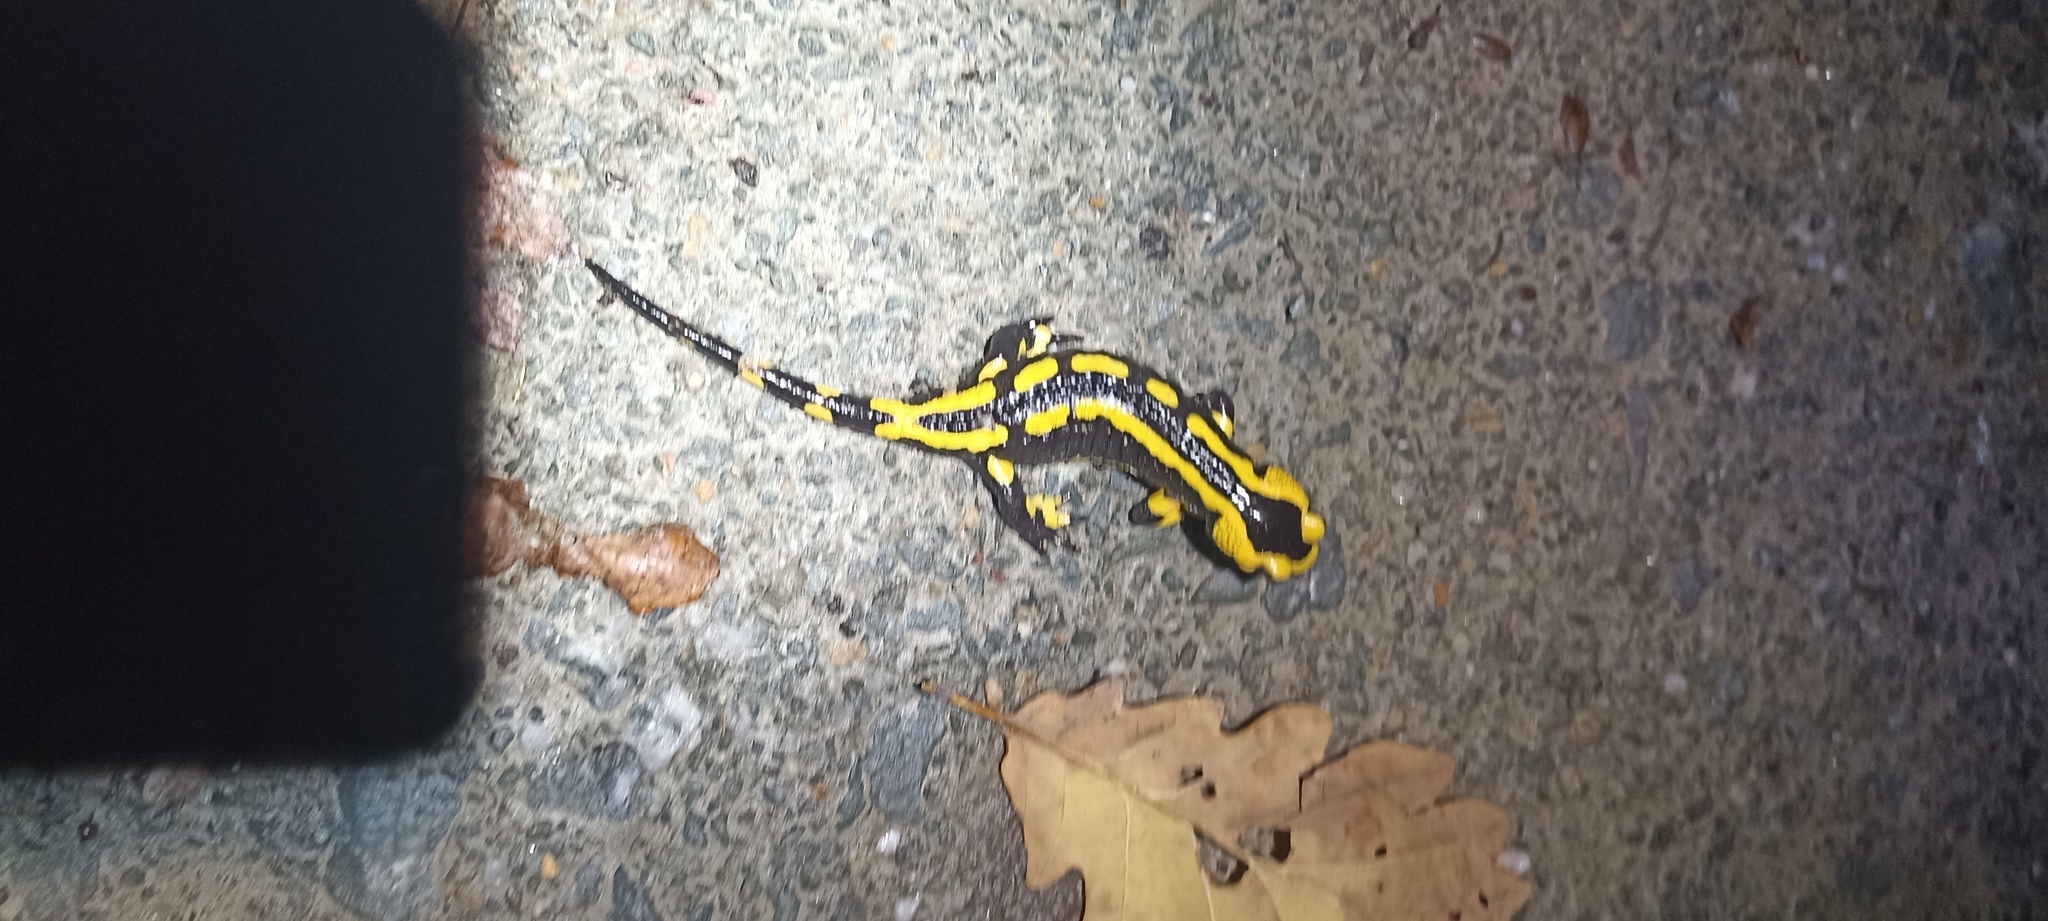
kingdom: Animalia
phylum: Chordata
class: Amphibia
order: Caudata
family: Salamandridae
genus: Salamandra
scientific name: Salamandra salamandra
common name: Fire salamander
